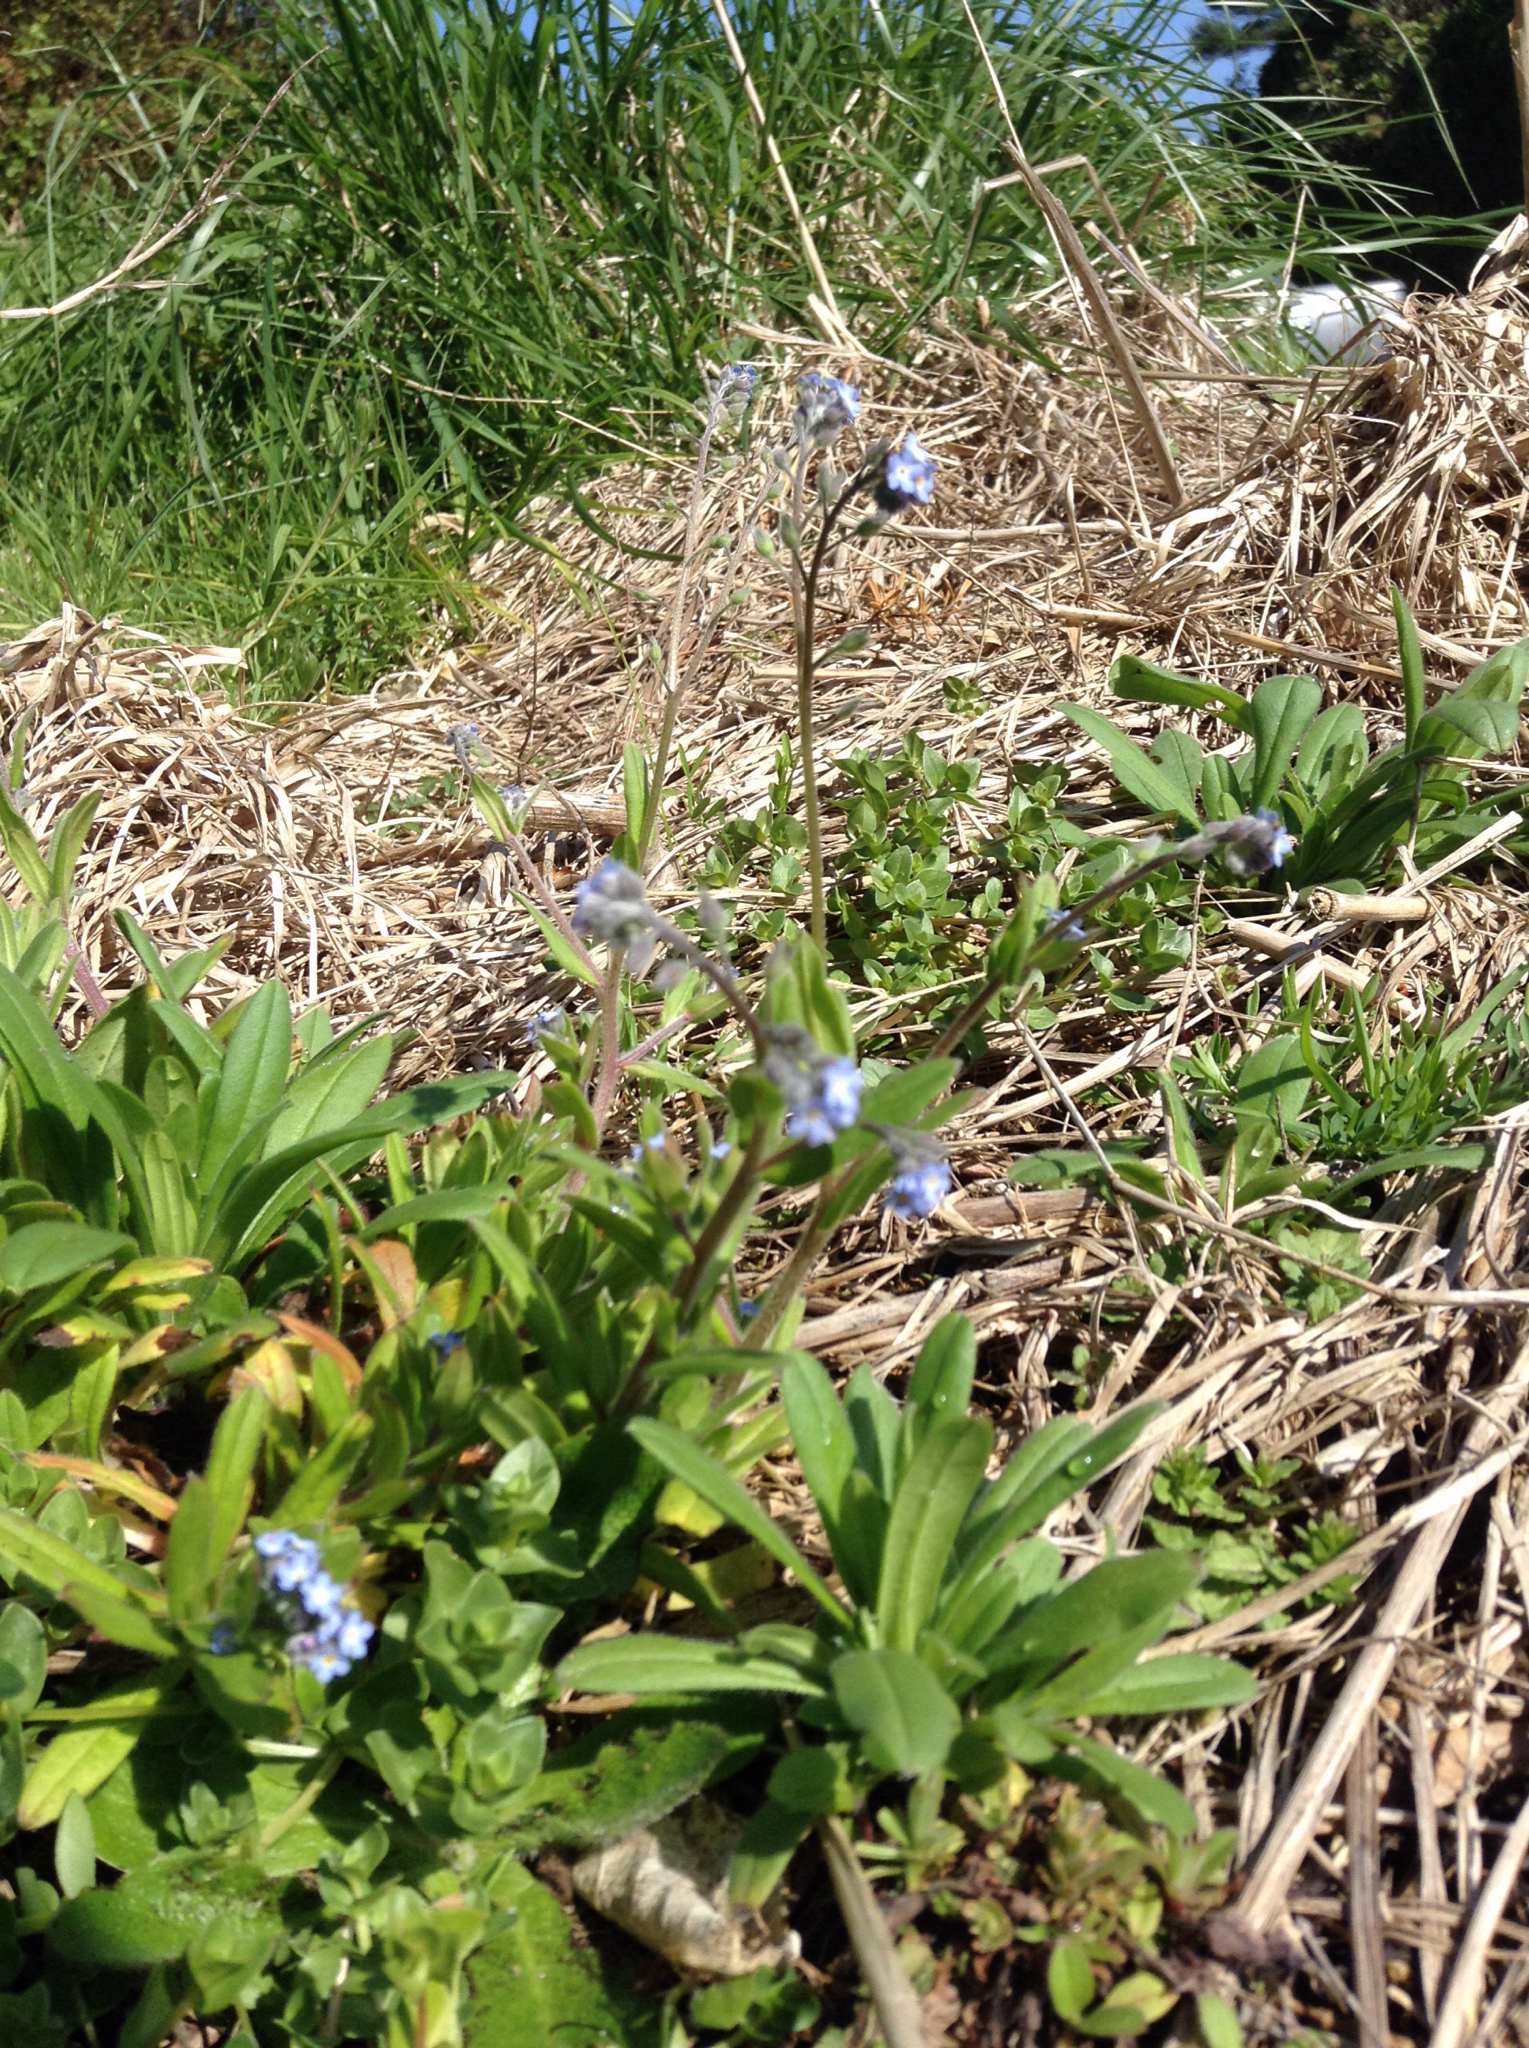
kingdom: Plantae
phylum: Tracheophyta
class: Magnoliopsida
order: Boraginales
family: Boraginaceae
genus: Myosotis
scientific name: Myosotis laxa
